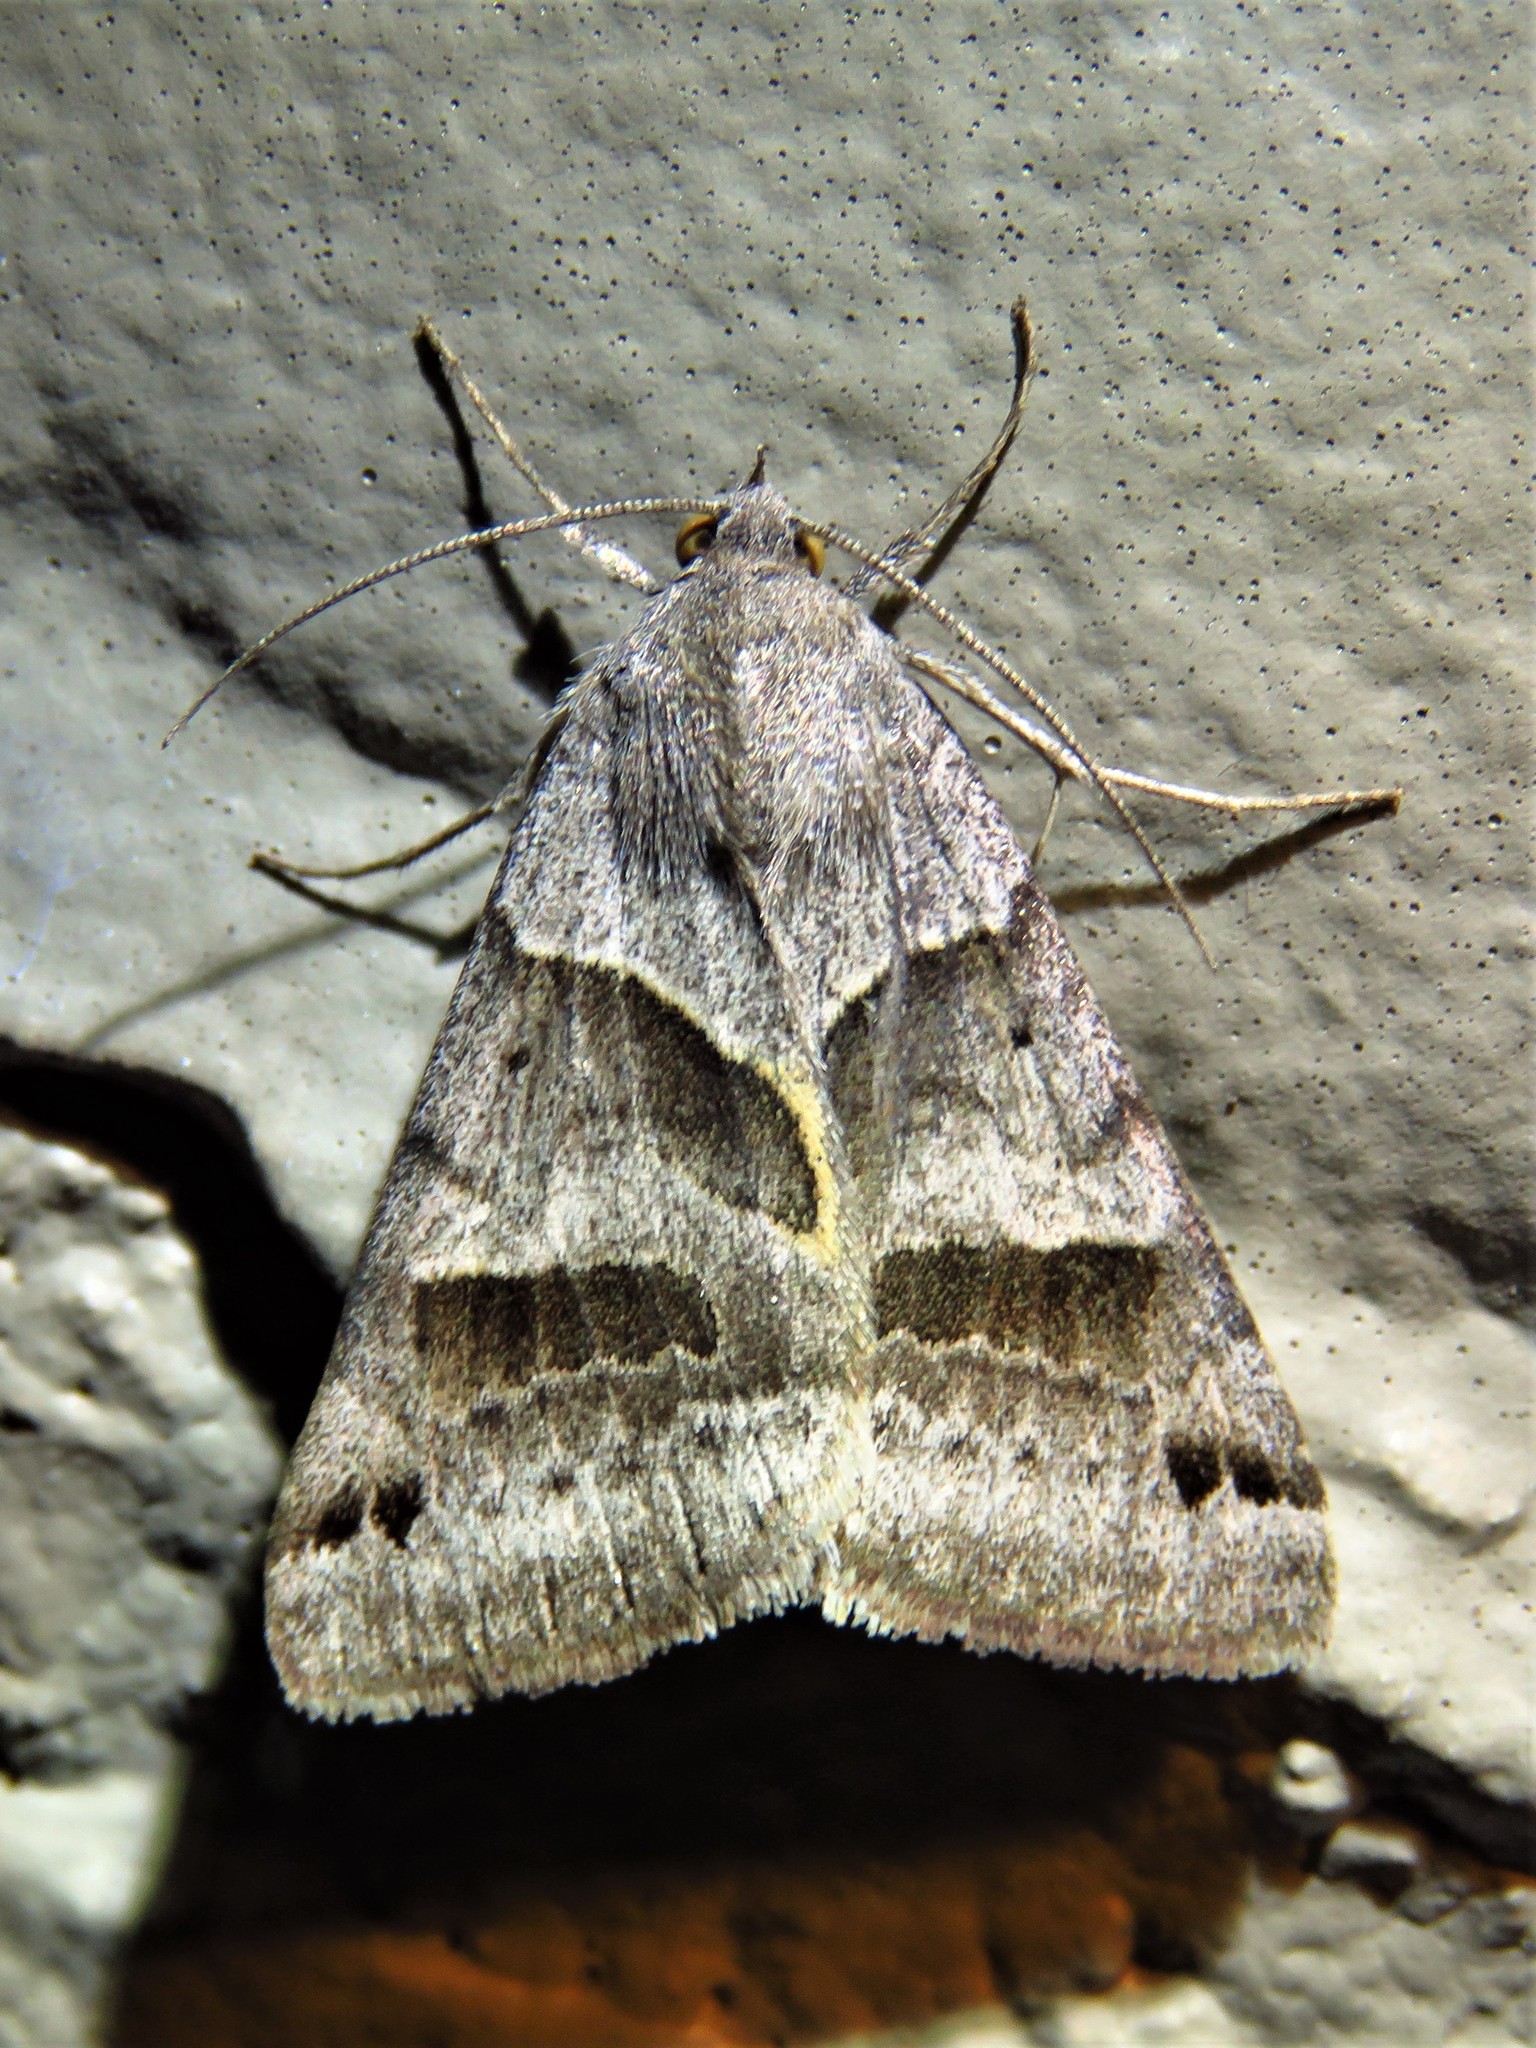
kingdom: Animalia
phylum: Arthropoda
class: Insecta
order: Lepidoptera
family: Erebidae
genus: Caenurgina
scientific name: Caenurgina erechtea
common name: Forage looper moth
